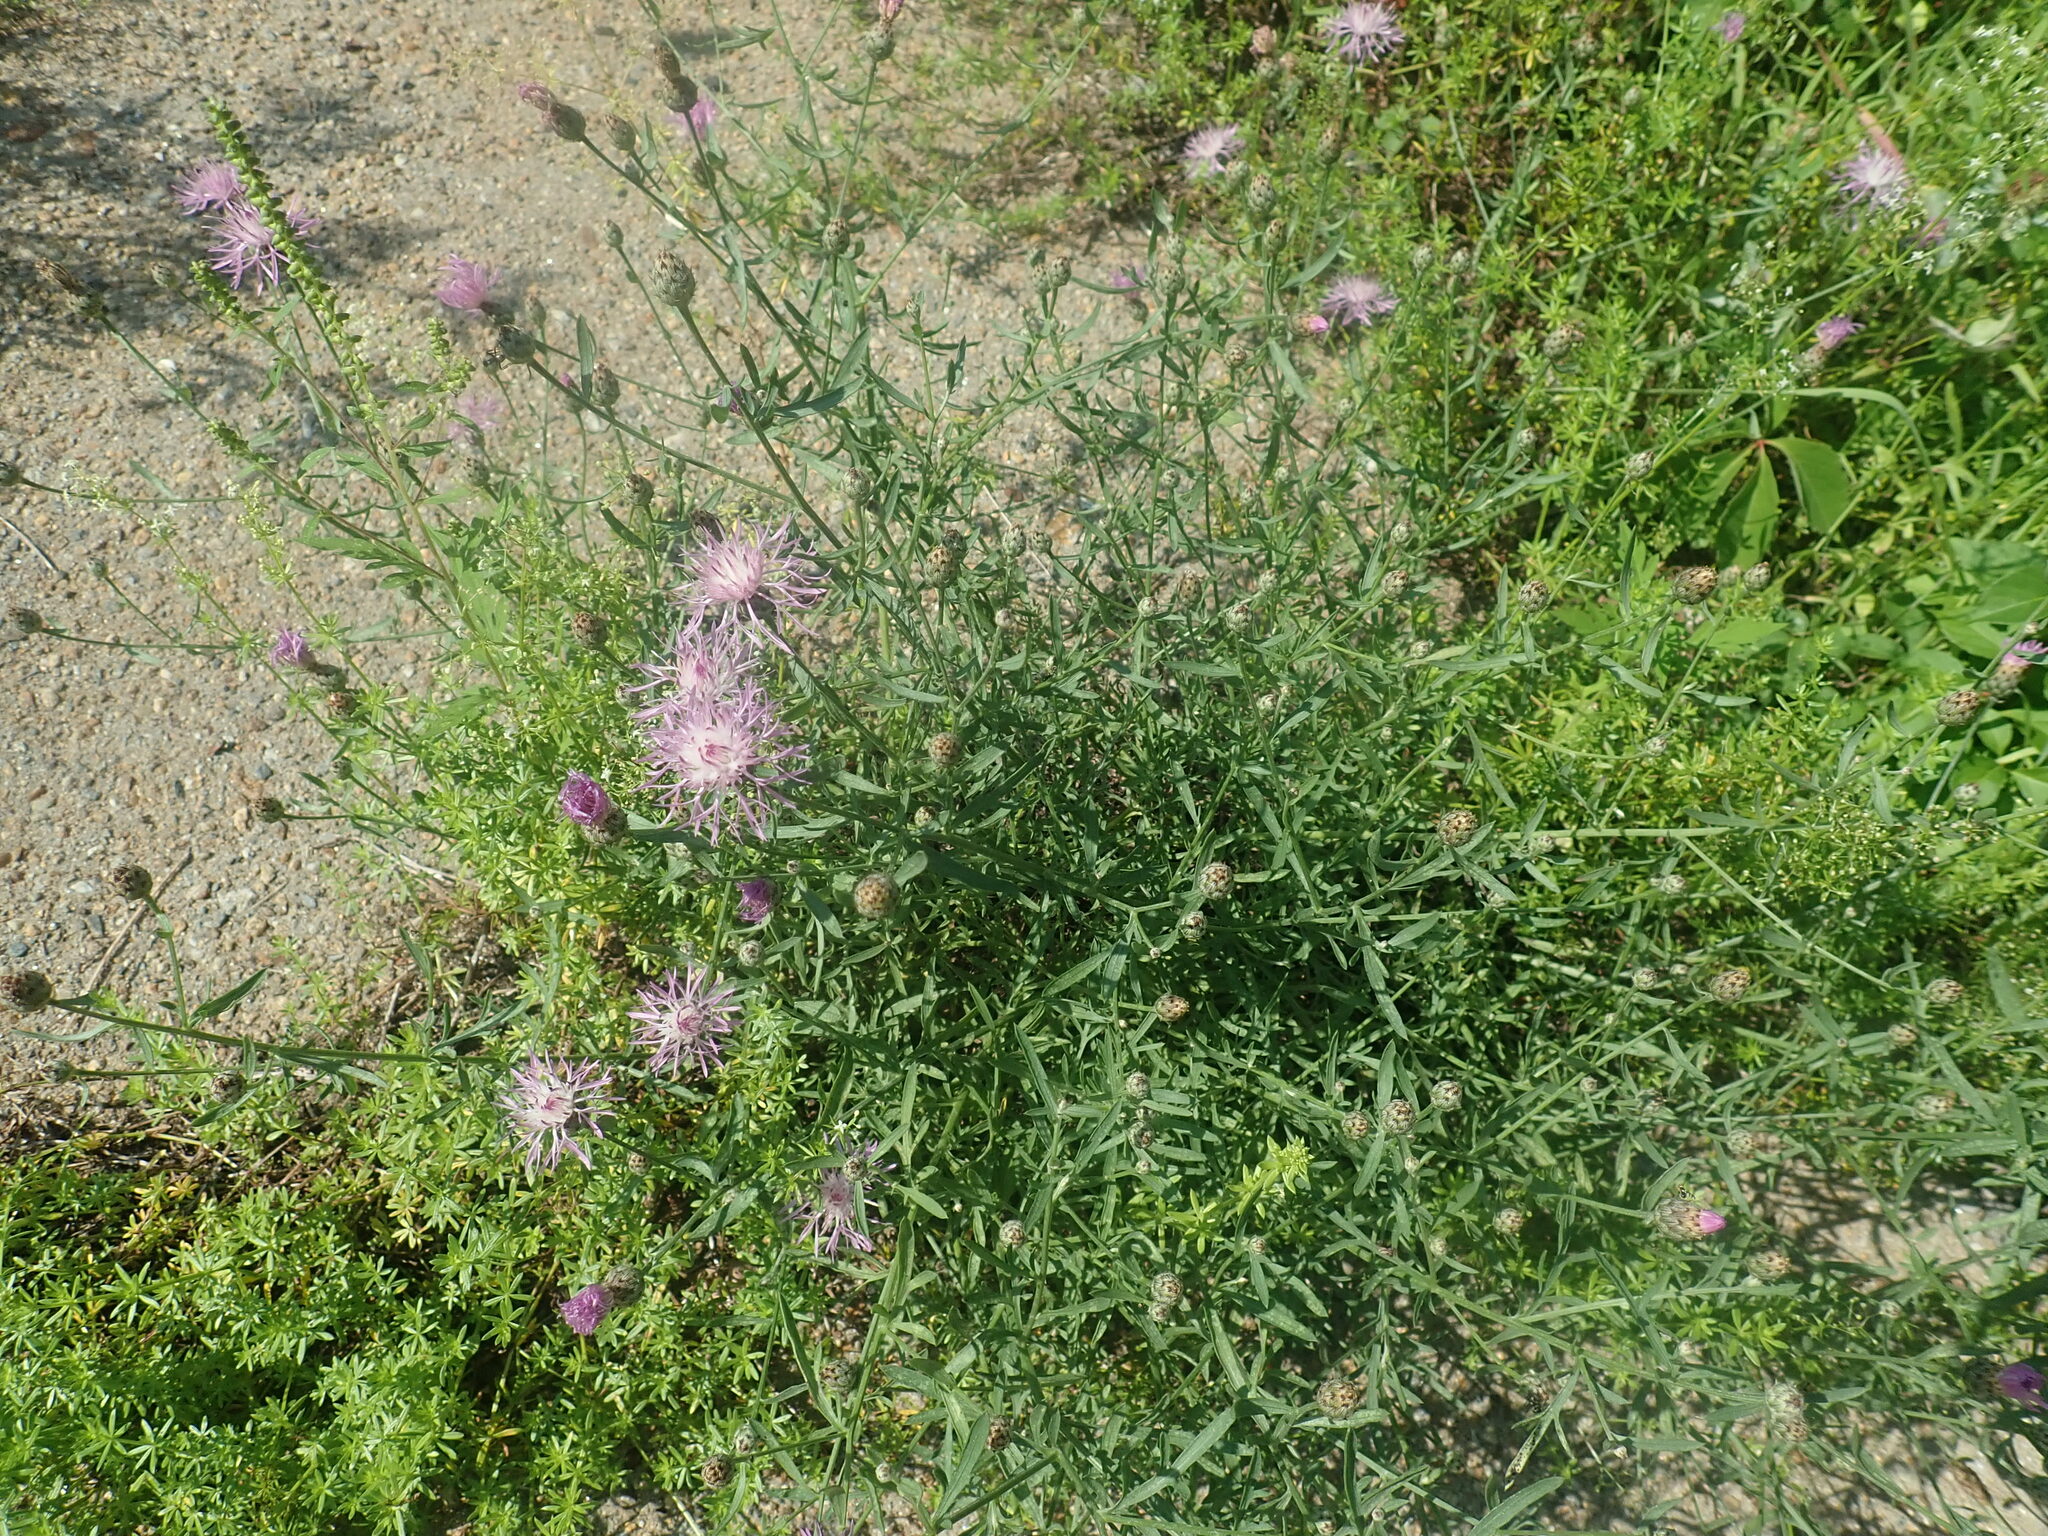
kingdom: Plantae
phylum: Tracheophyta
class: Magnoliopsida
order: Asterales
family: Asteraceae
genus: Centaurea
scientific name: Centaurea stoebe
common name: Spotted knapweed
